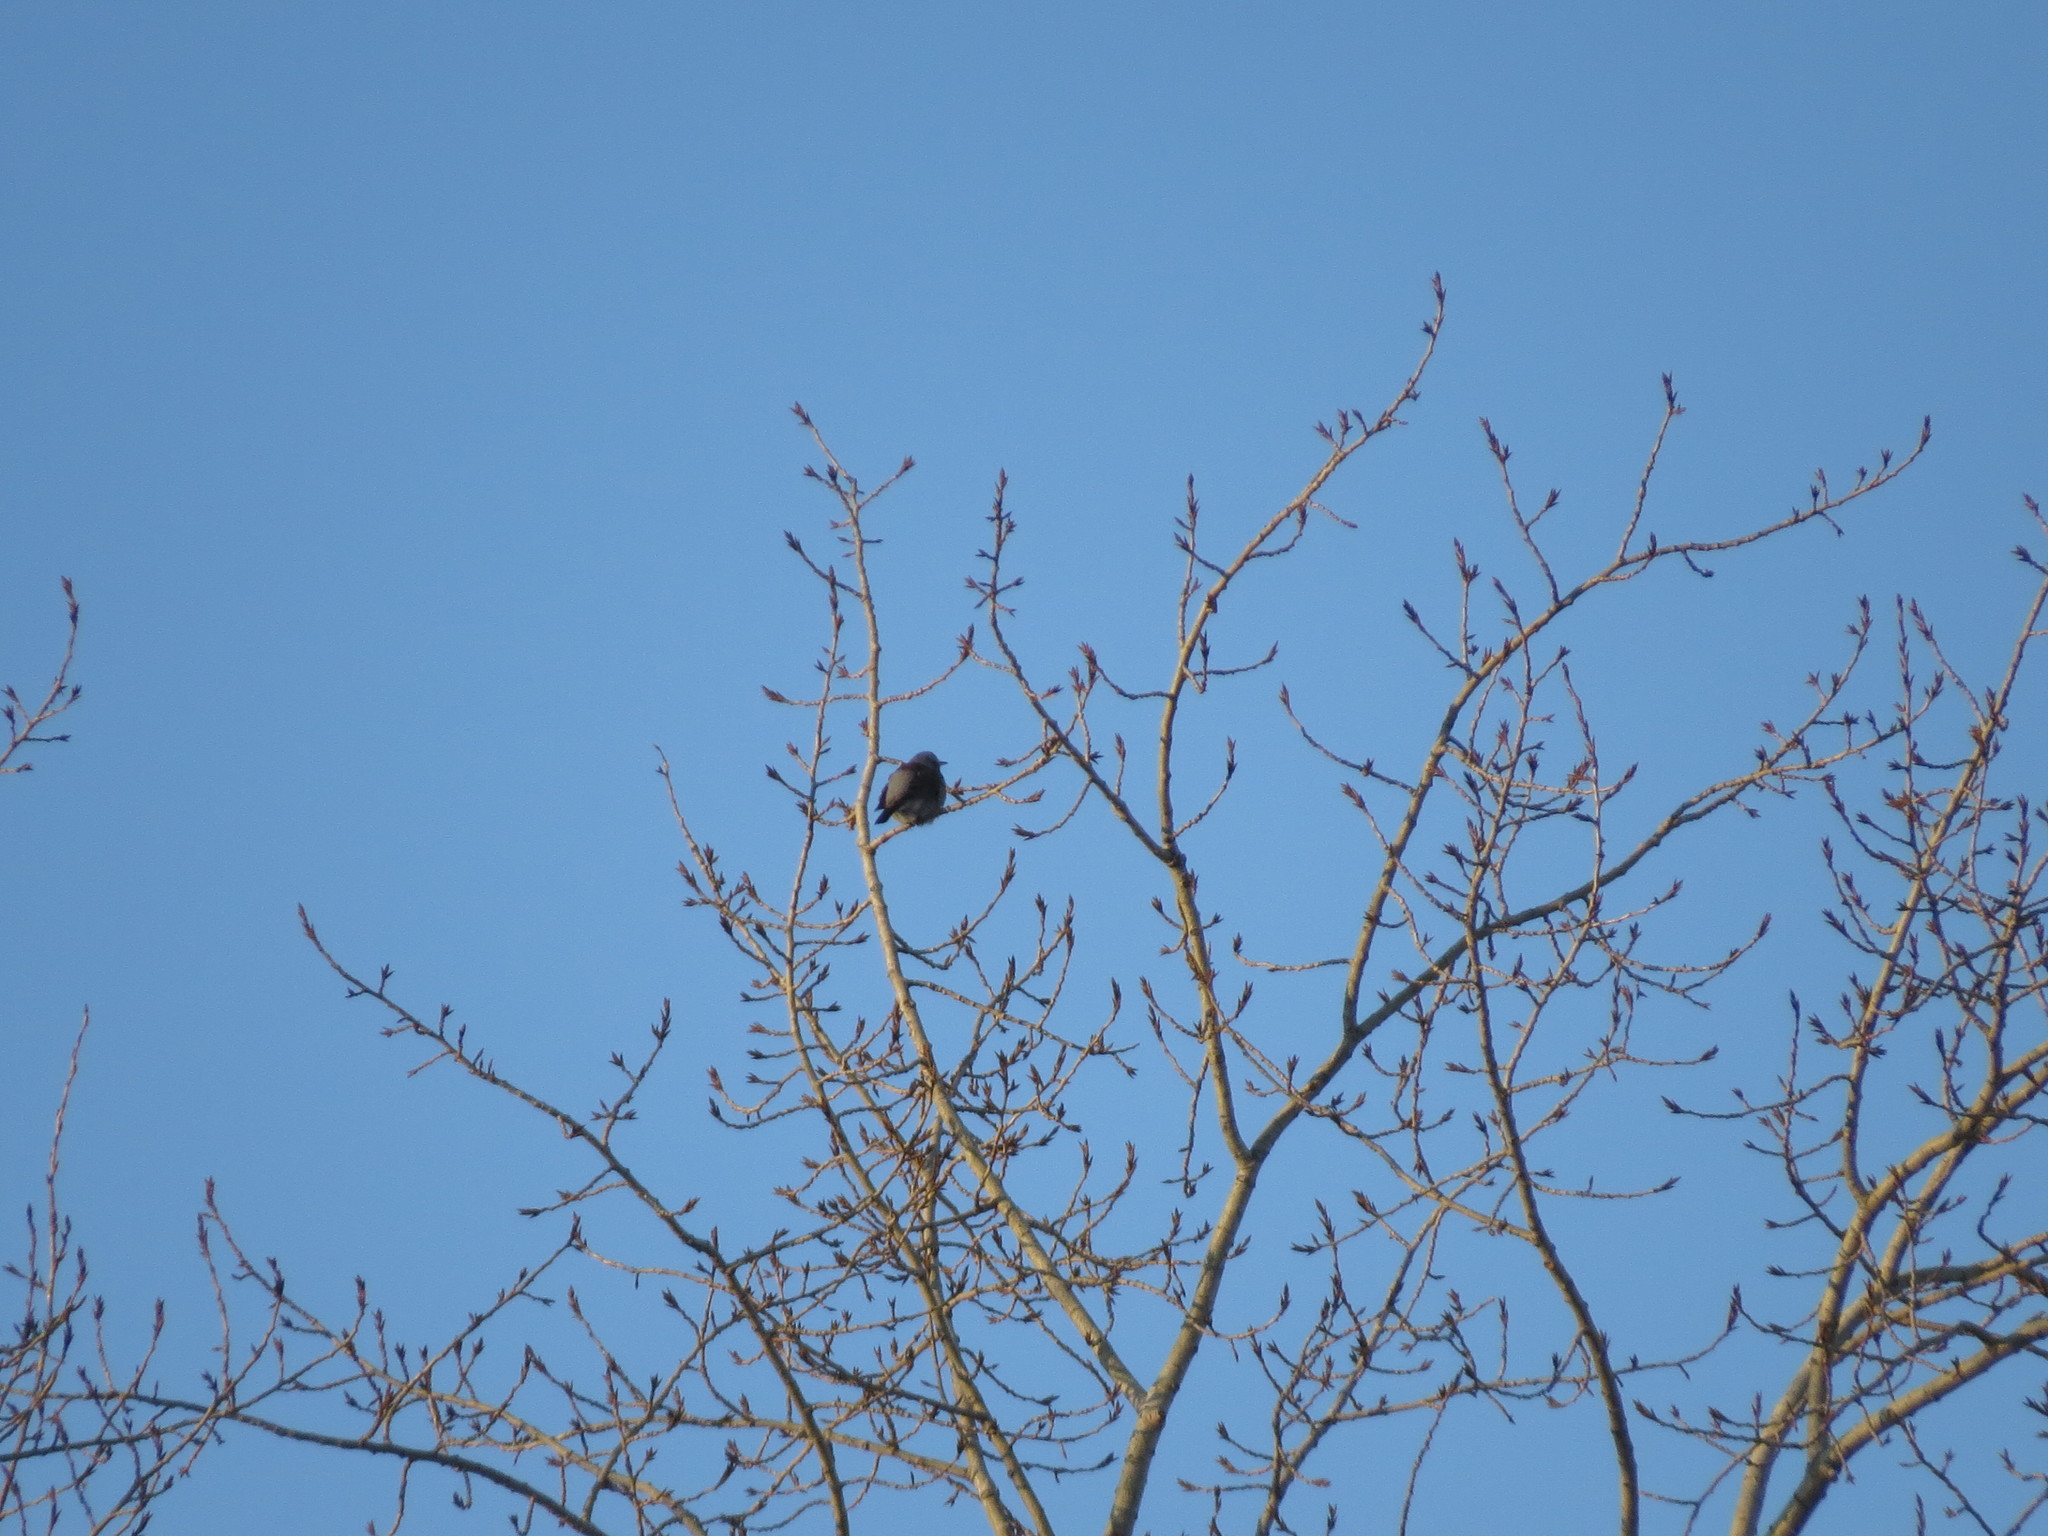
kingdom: Animalia
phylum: Chordata
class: Aves
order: Passeriformes
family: Turdidae
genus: Turdus
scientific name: Turdus pilaris
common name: Fieldfare
